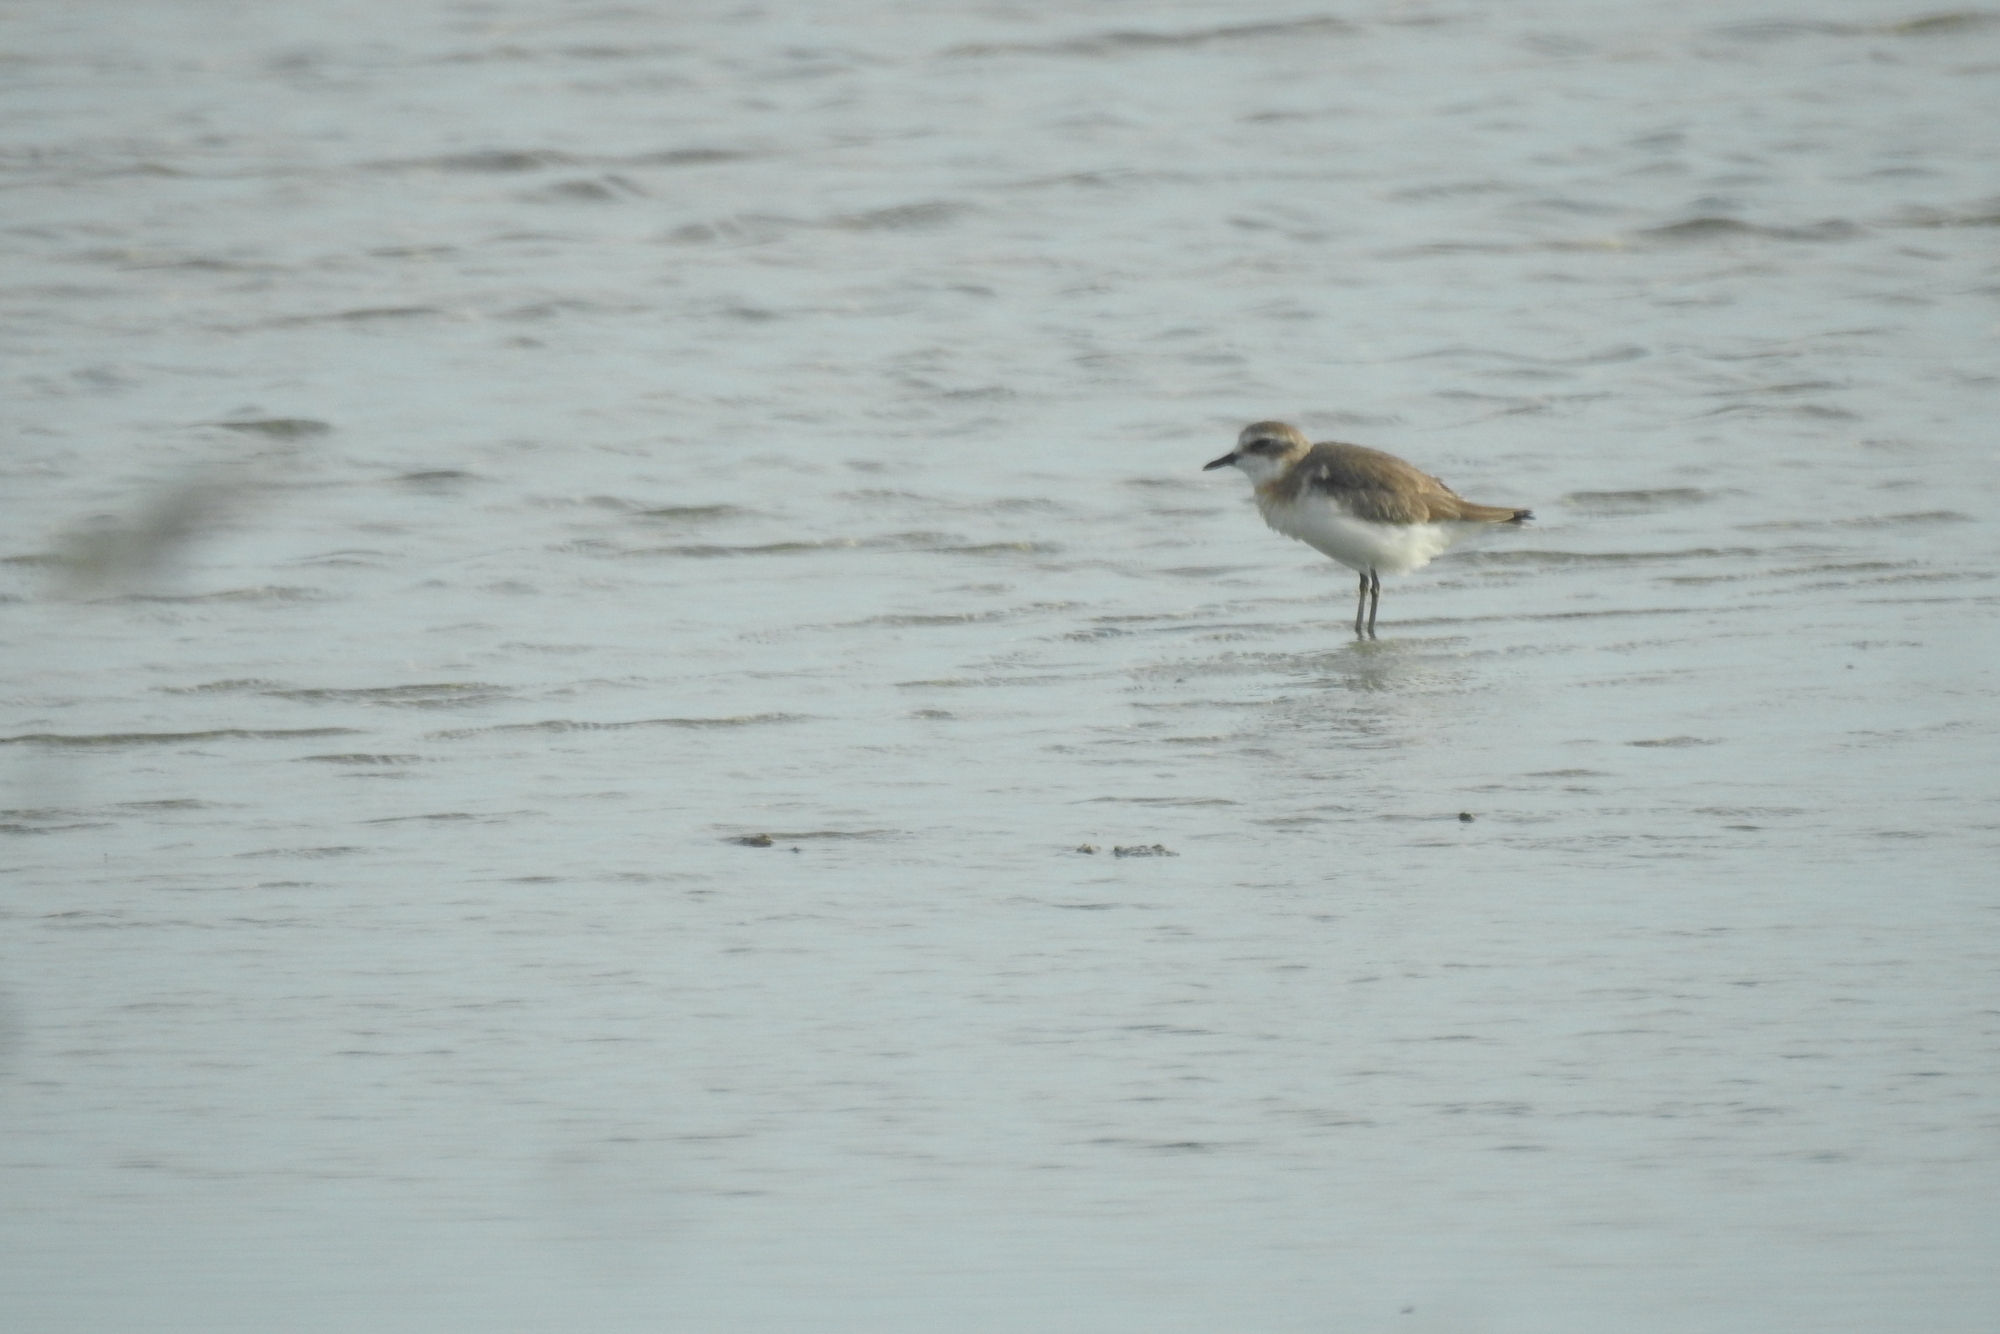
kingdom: Animalia
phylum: Chordata
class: Aves
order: Charadriiformes
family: Charadriidae
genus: Anarhynchus
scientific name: Anarhynchus
